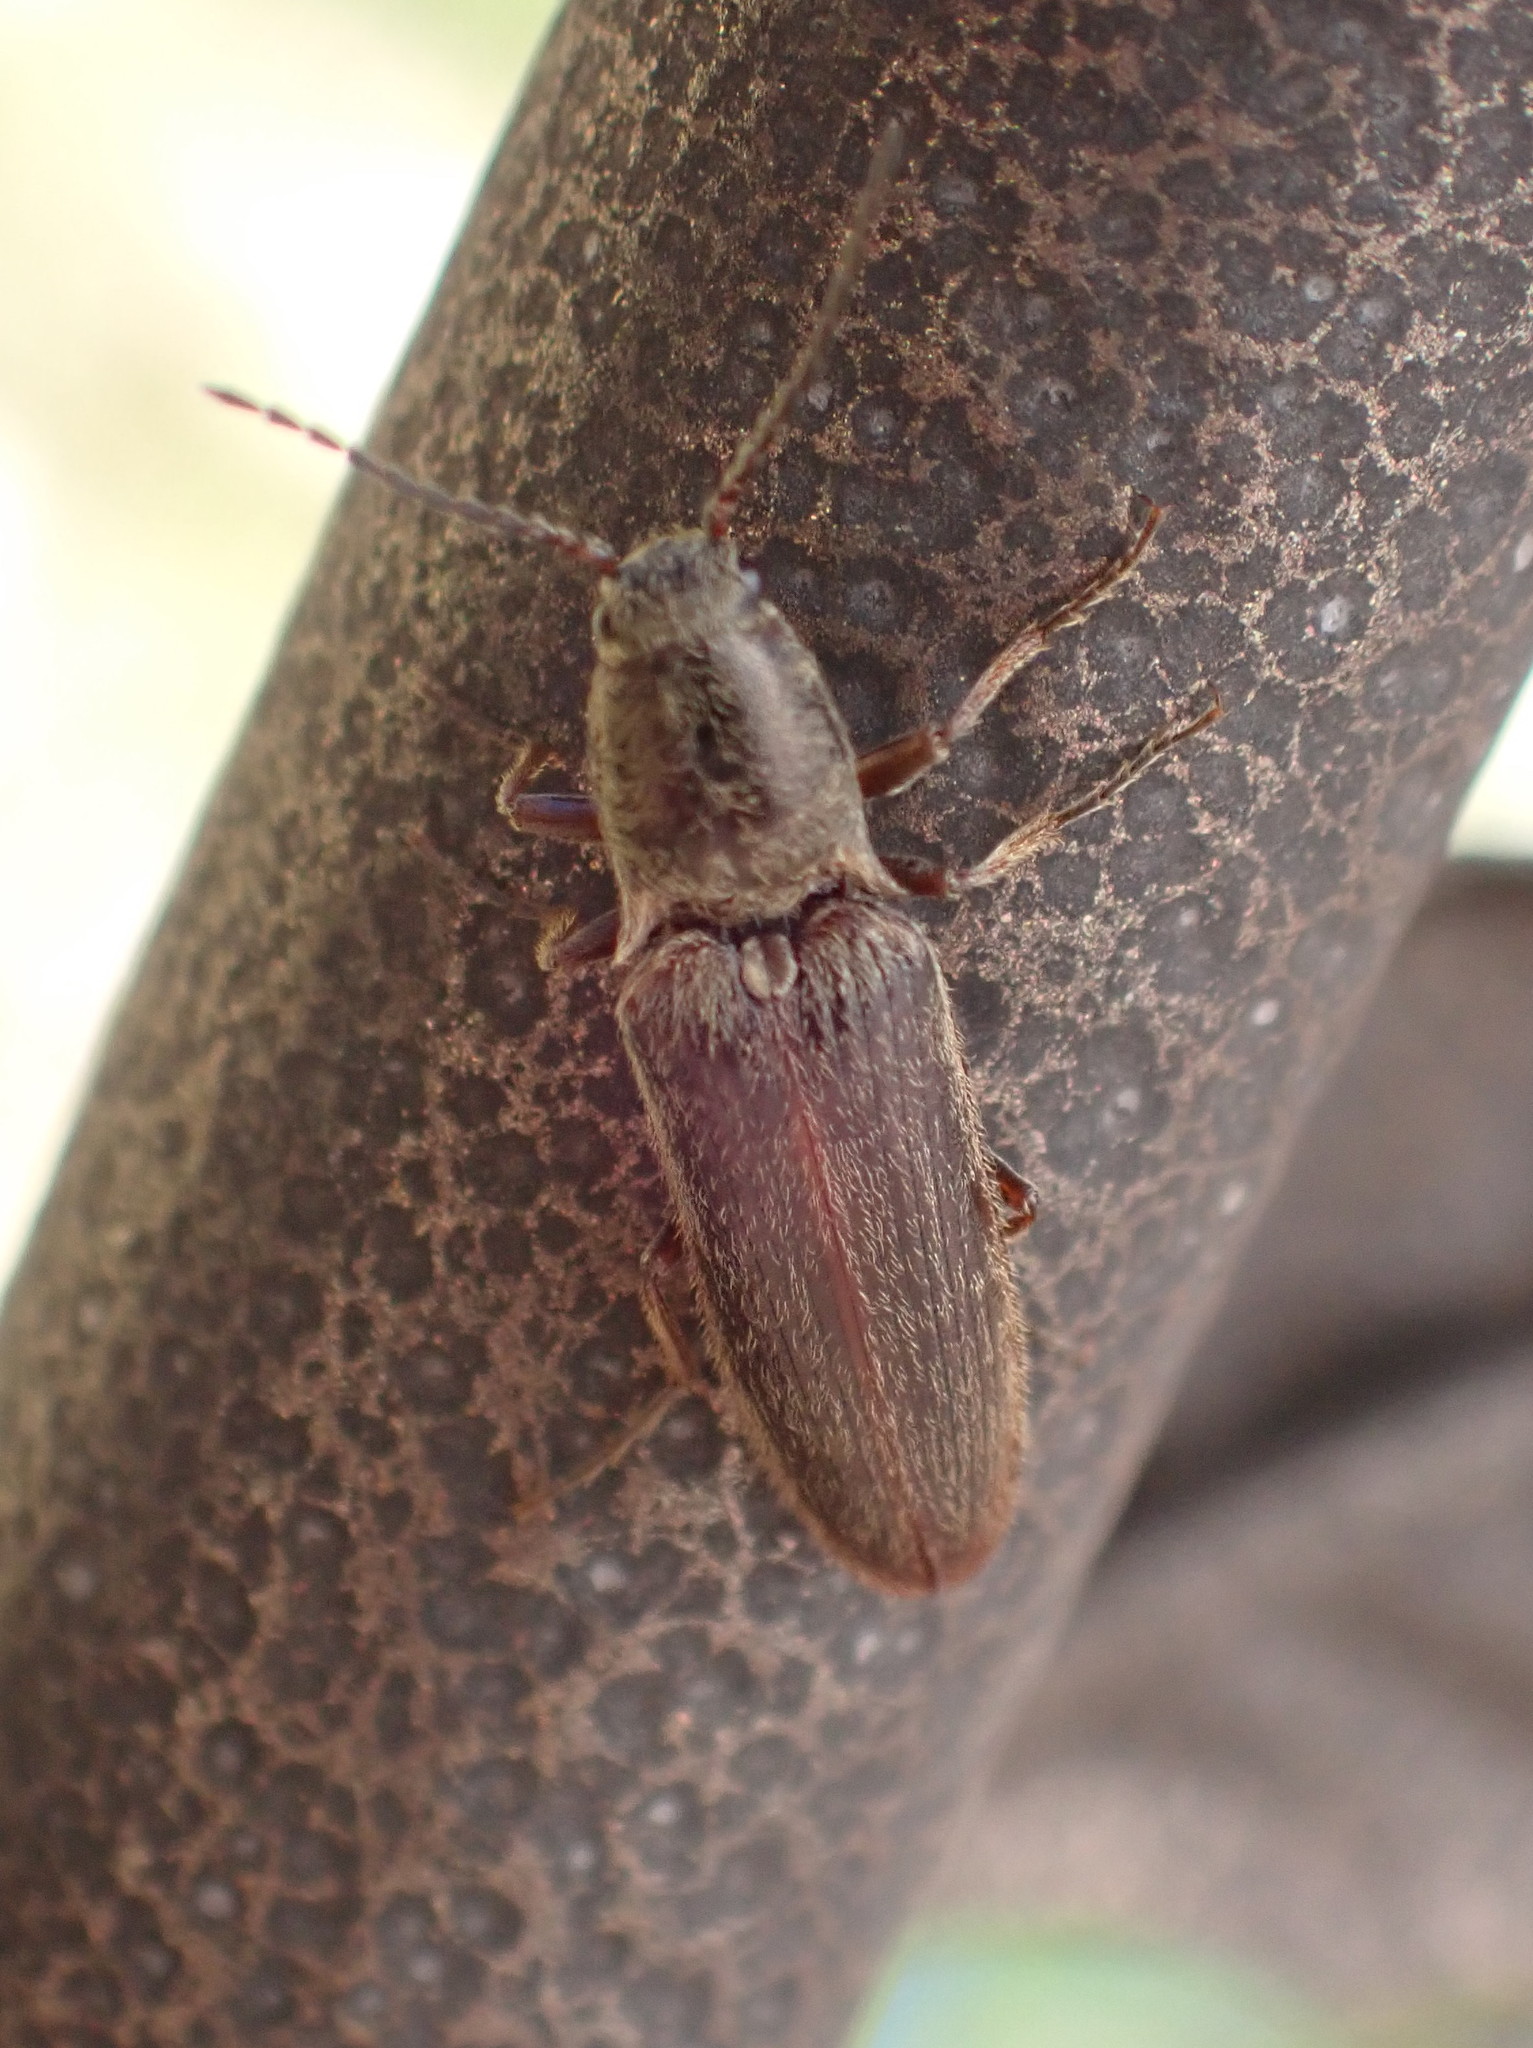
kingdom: Animalia
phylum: Arthropoda
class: Insecta
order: Coleoptera
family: Elateridae
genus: Sylvanelater
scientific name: Sylvanelater cylindriformis
